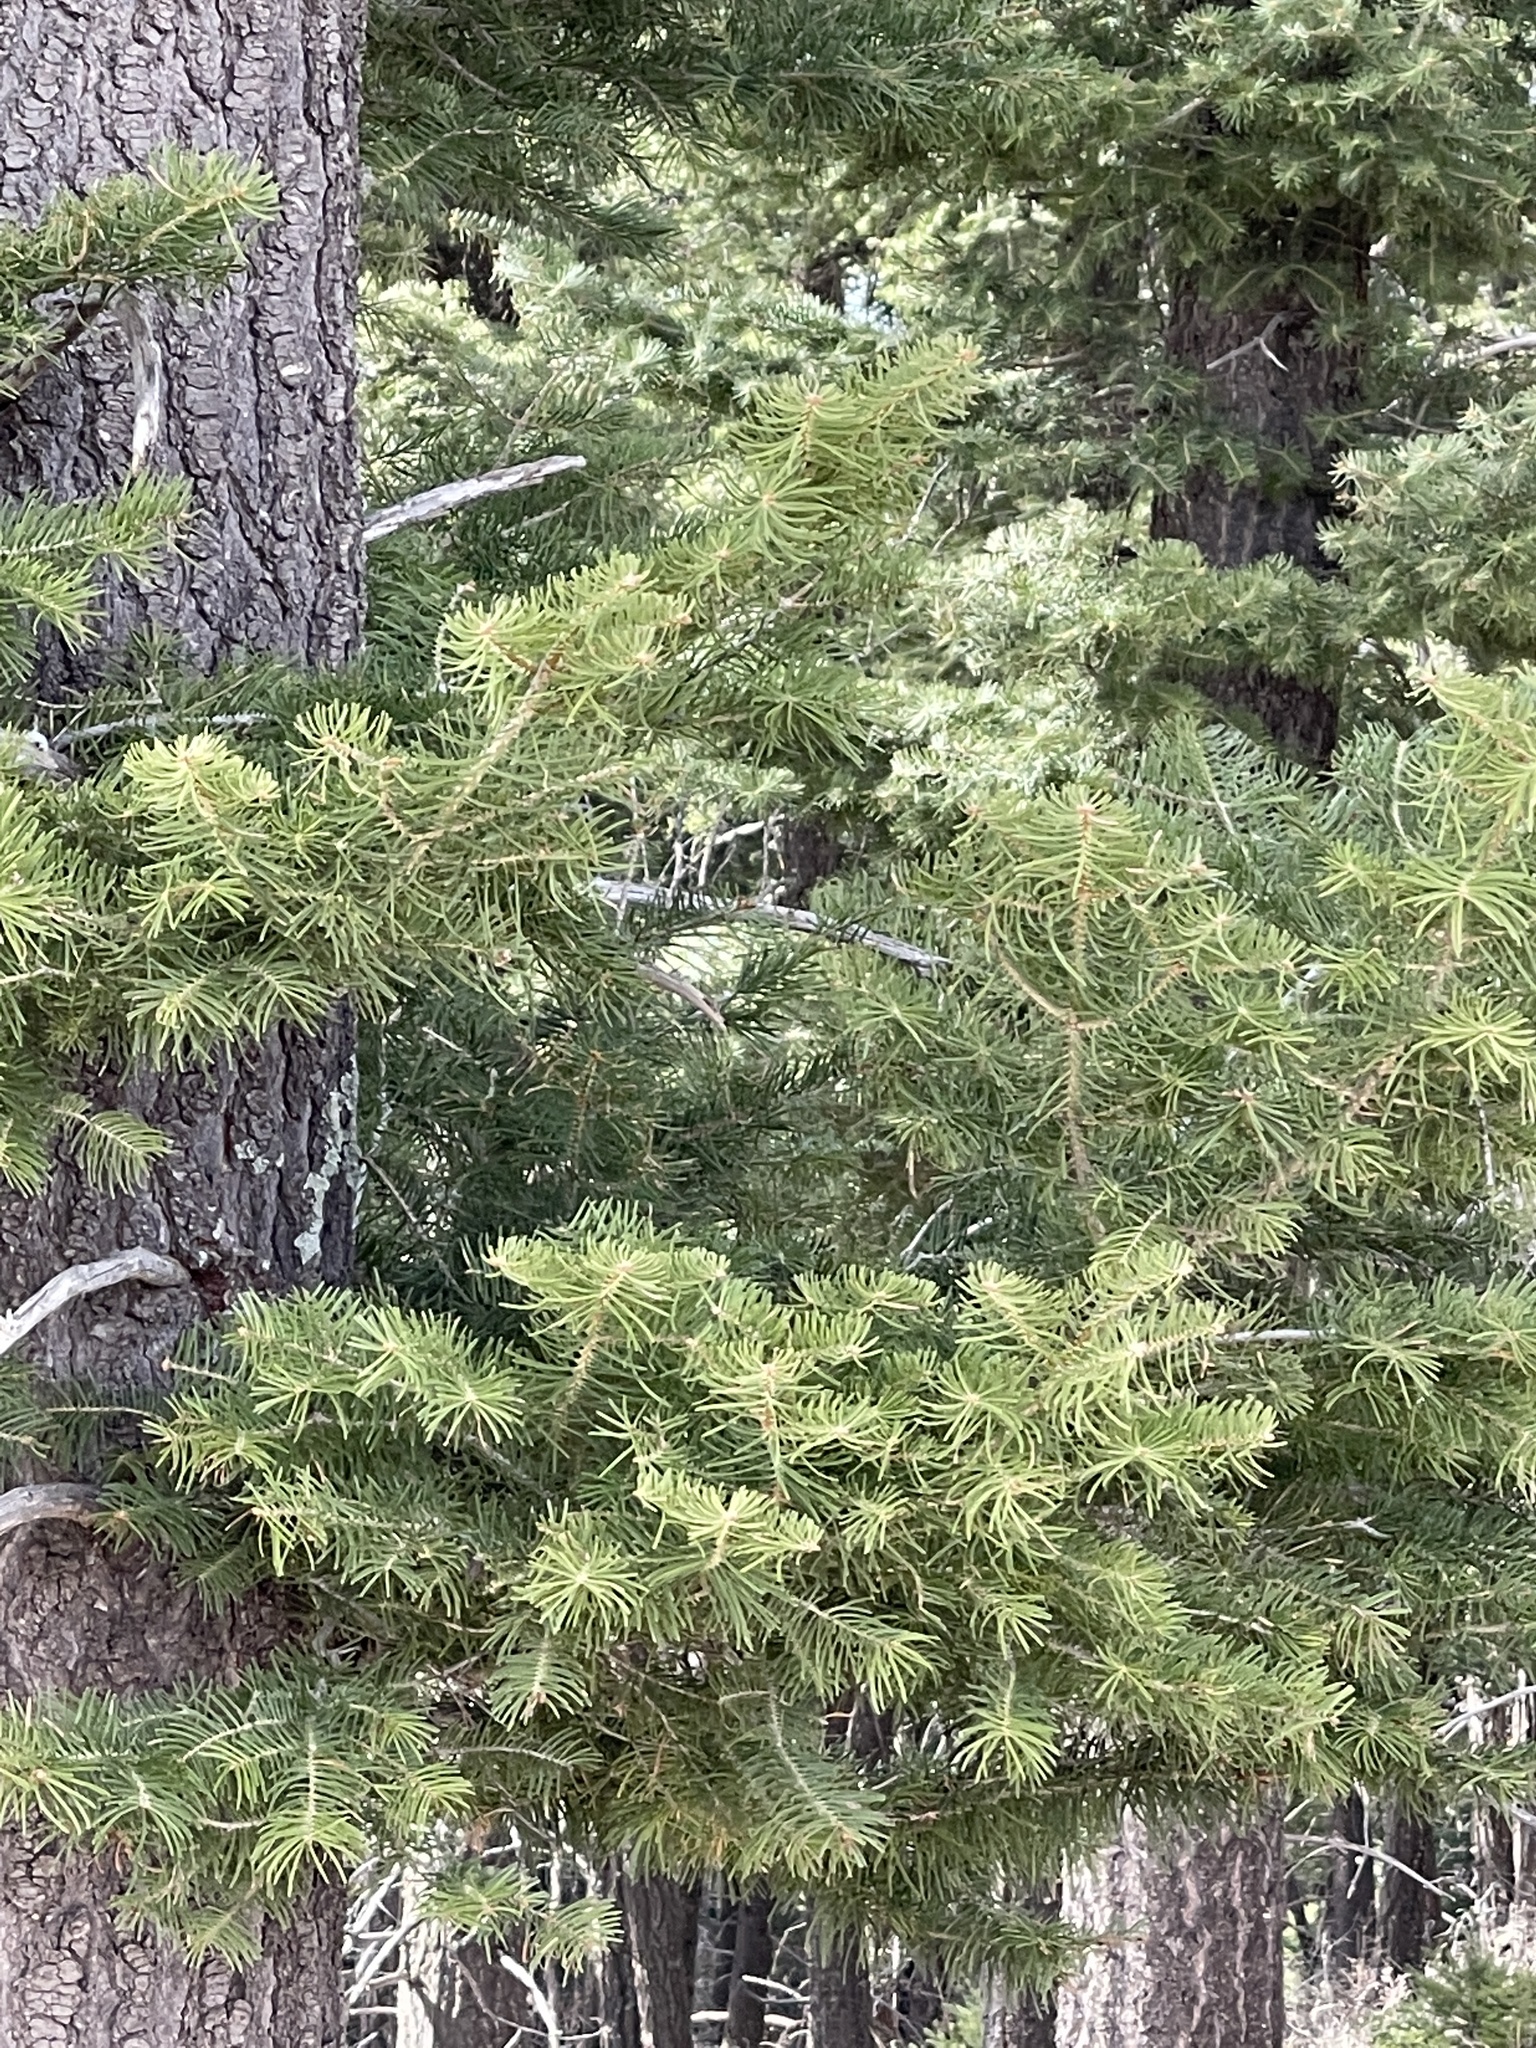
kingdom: Plantae
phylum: Tracheophyta
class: Pinopsida
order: Pinales
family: Pinaceae
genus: Abies
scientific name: Abies concolor
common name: Colorado fir
